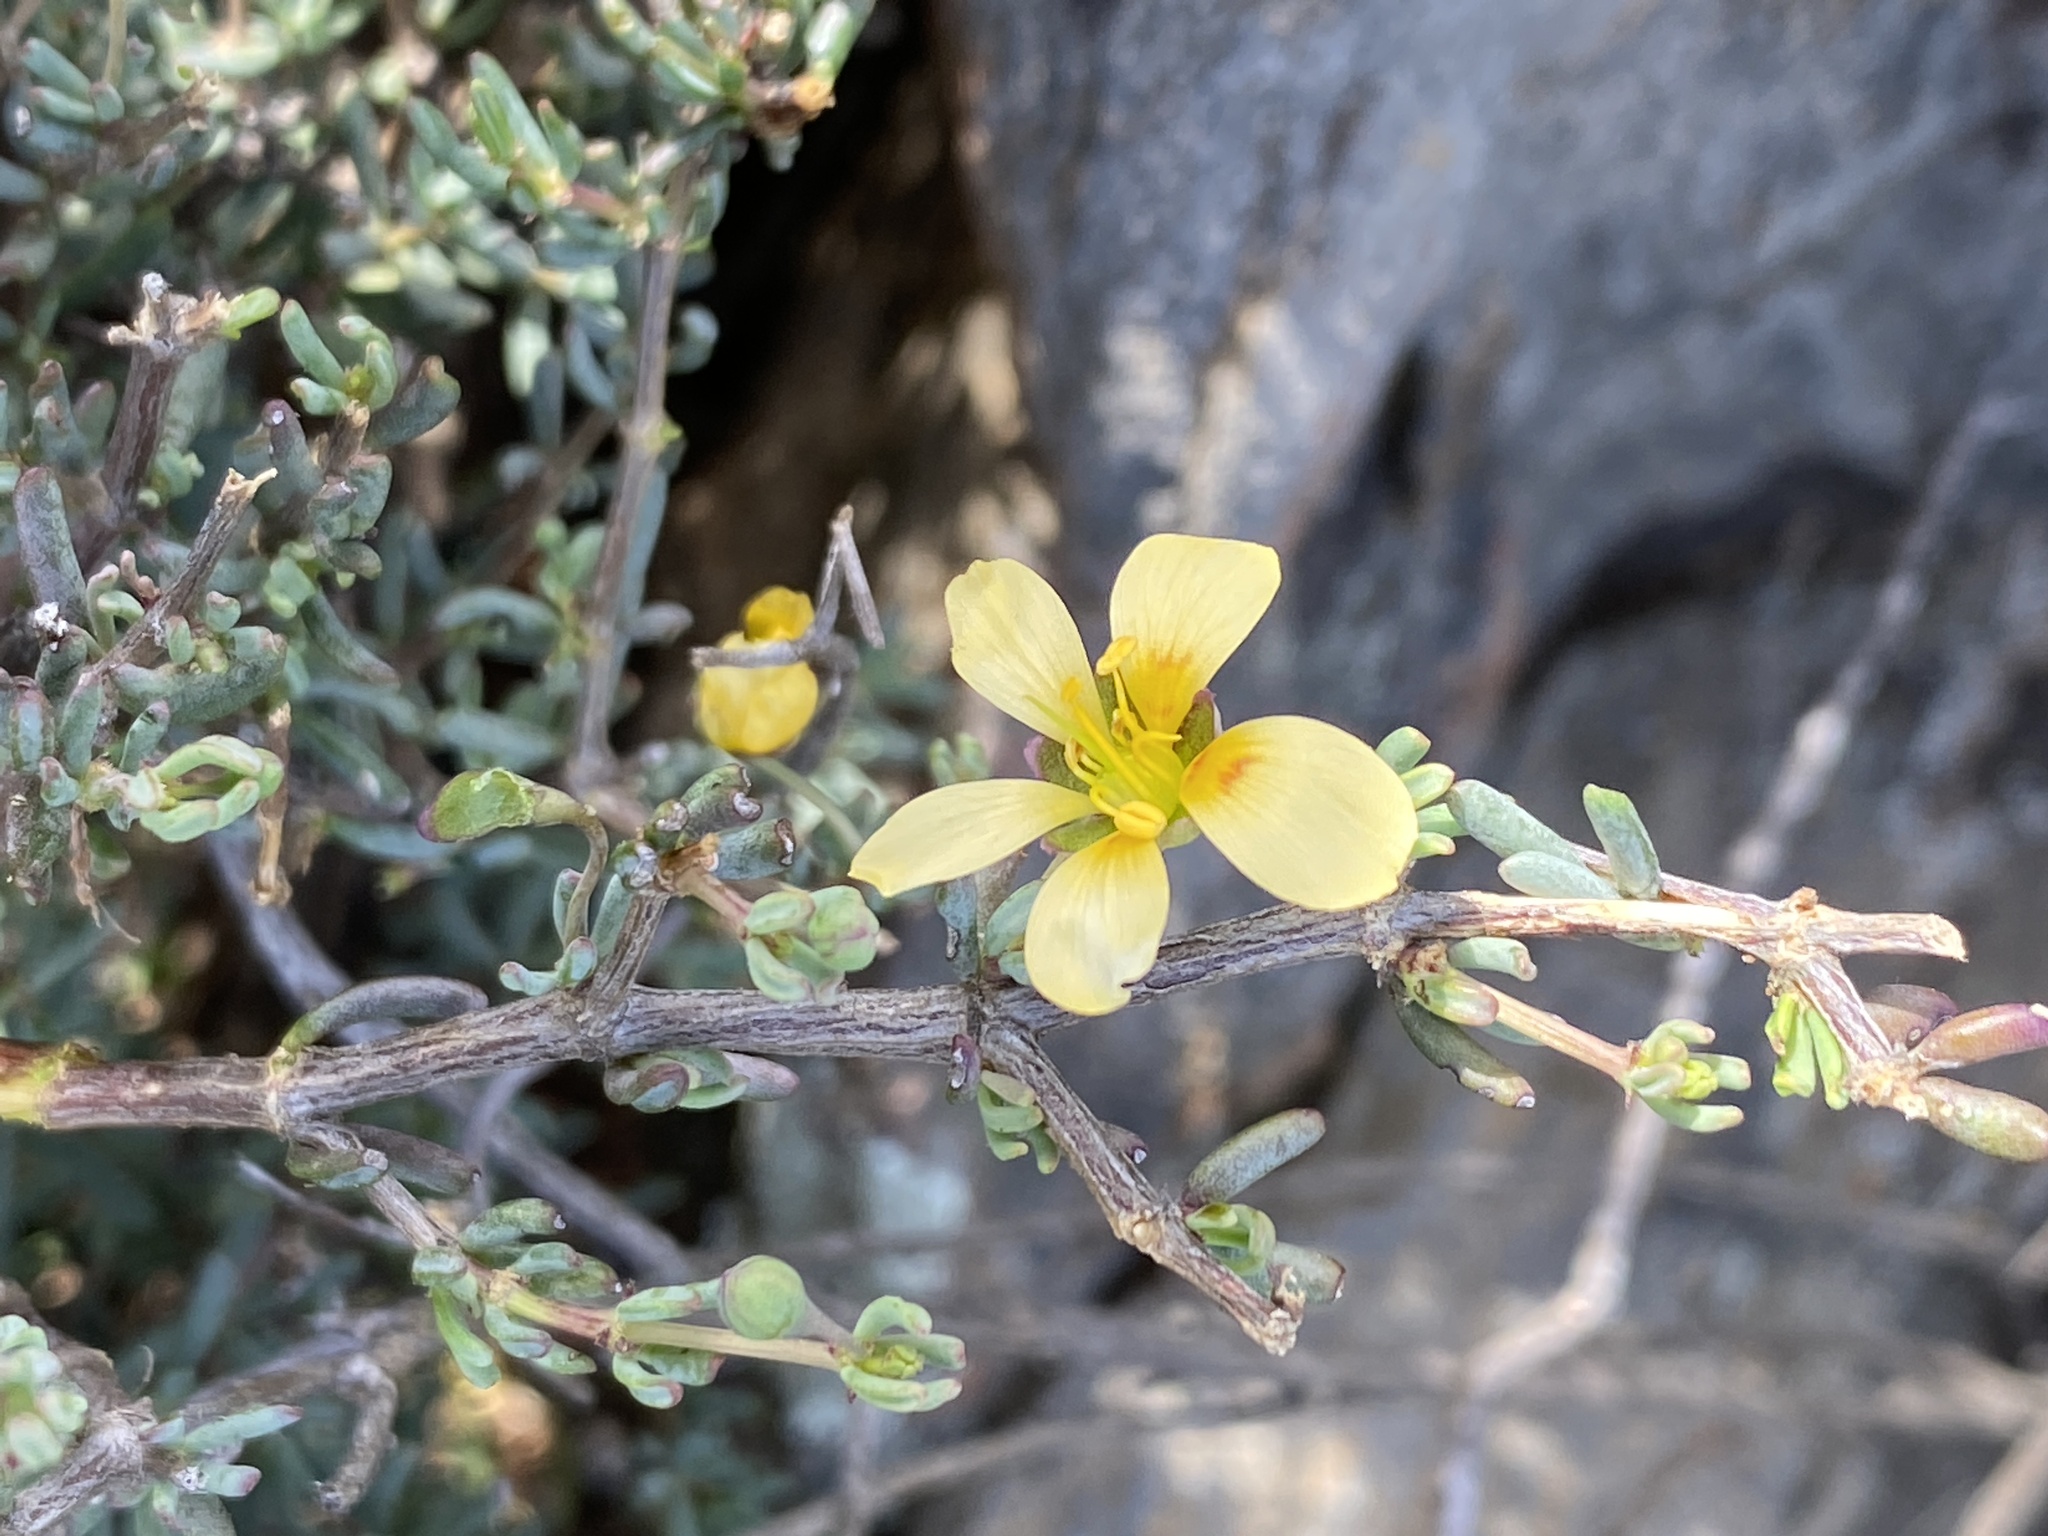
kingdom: Plantae
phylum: Tracheophyta
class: Magnoliopsida
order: Zygophyllales
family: Zygophyllaceae
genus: Roepera
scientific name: Roepera pygmaea
